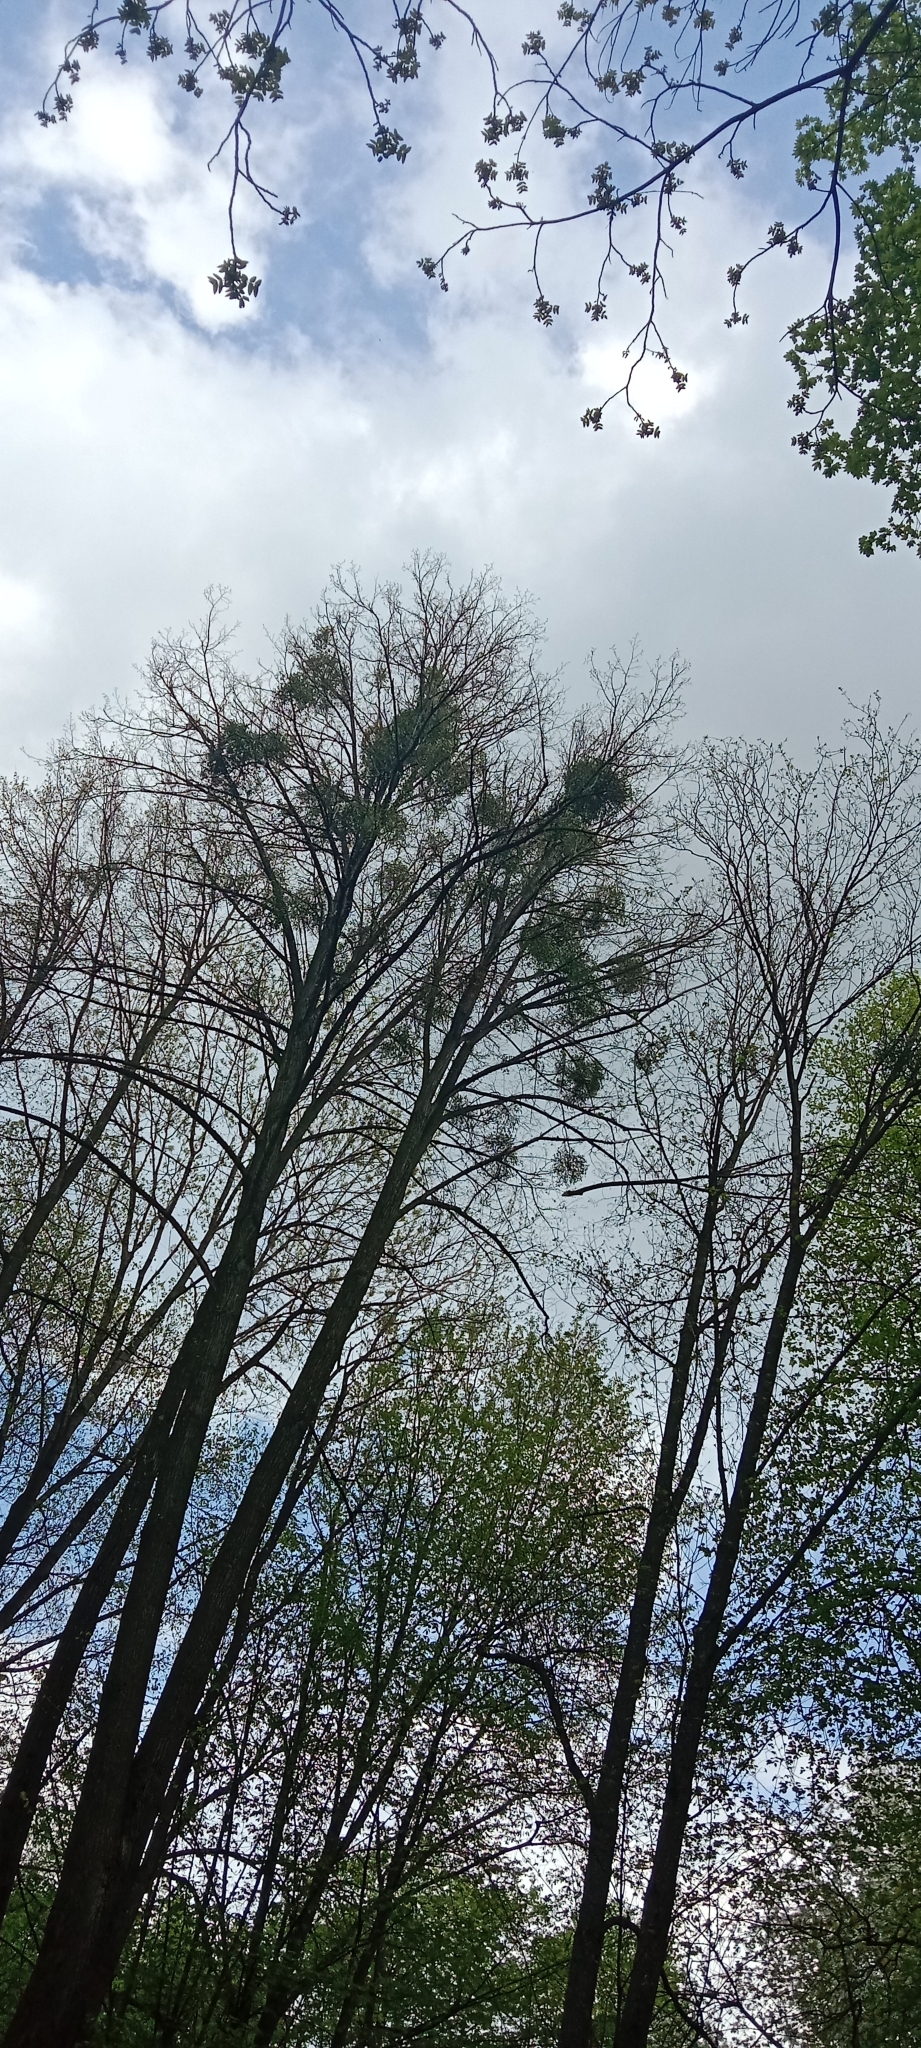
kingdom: Plantae
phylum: Tracheophyta
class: Magnoliopsida
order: Santalales
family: Viscaceae
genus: Viscum
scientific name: Viscum album
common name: Mistletoe
